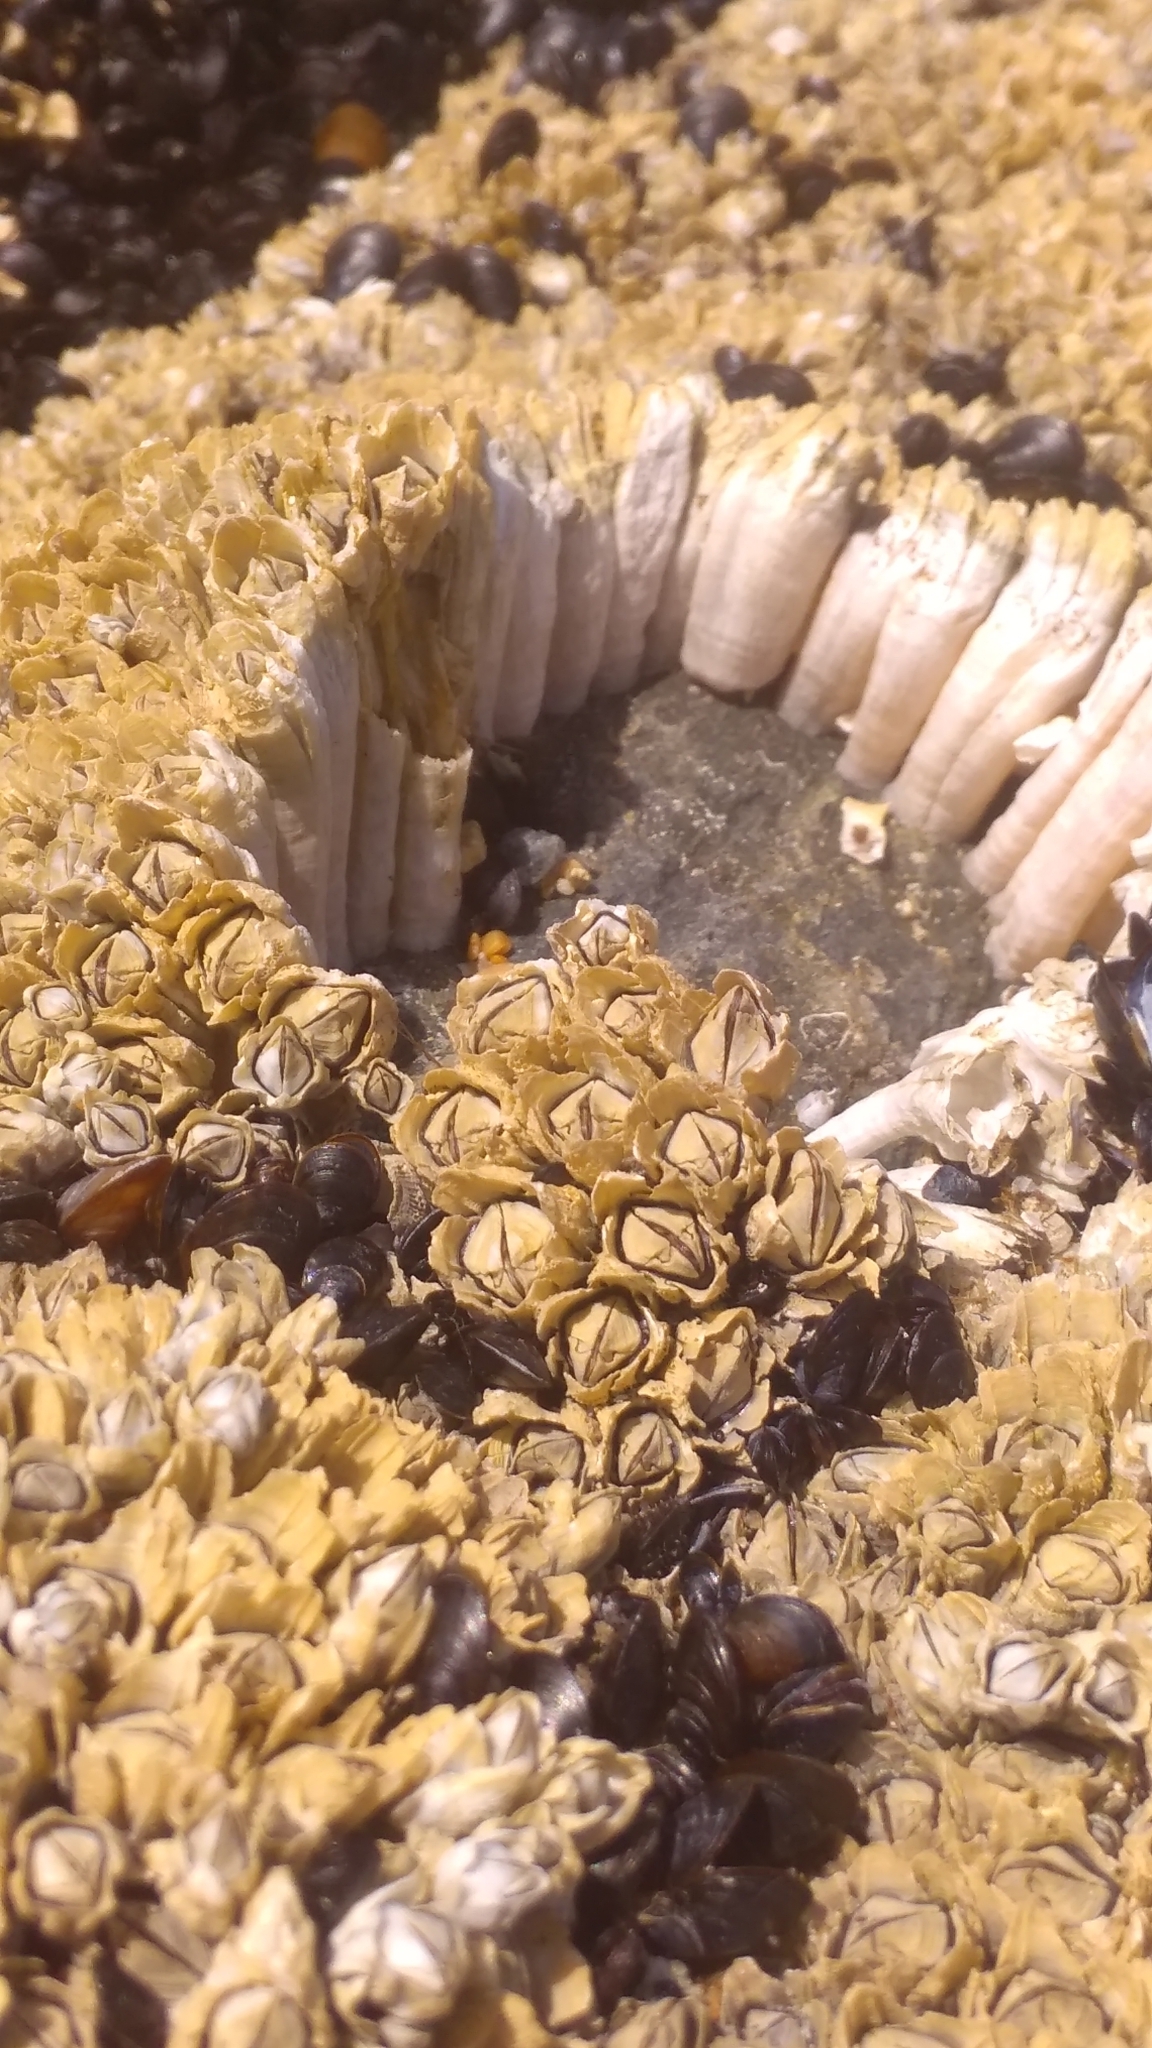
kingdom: Animalia
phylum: Arthropoda
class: Maxillopoda
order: Sessilia
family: Archaeobalanidae
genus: Semibalanus
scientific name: Semibalanus balanoides
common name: Acorn barnacle
